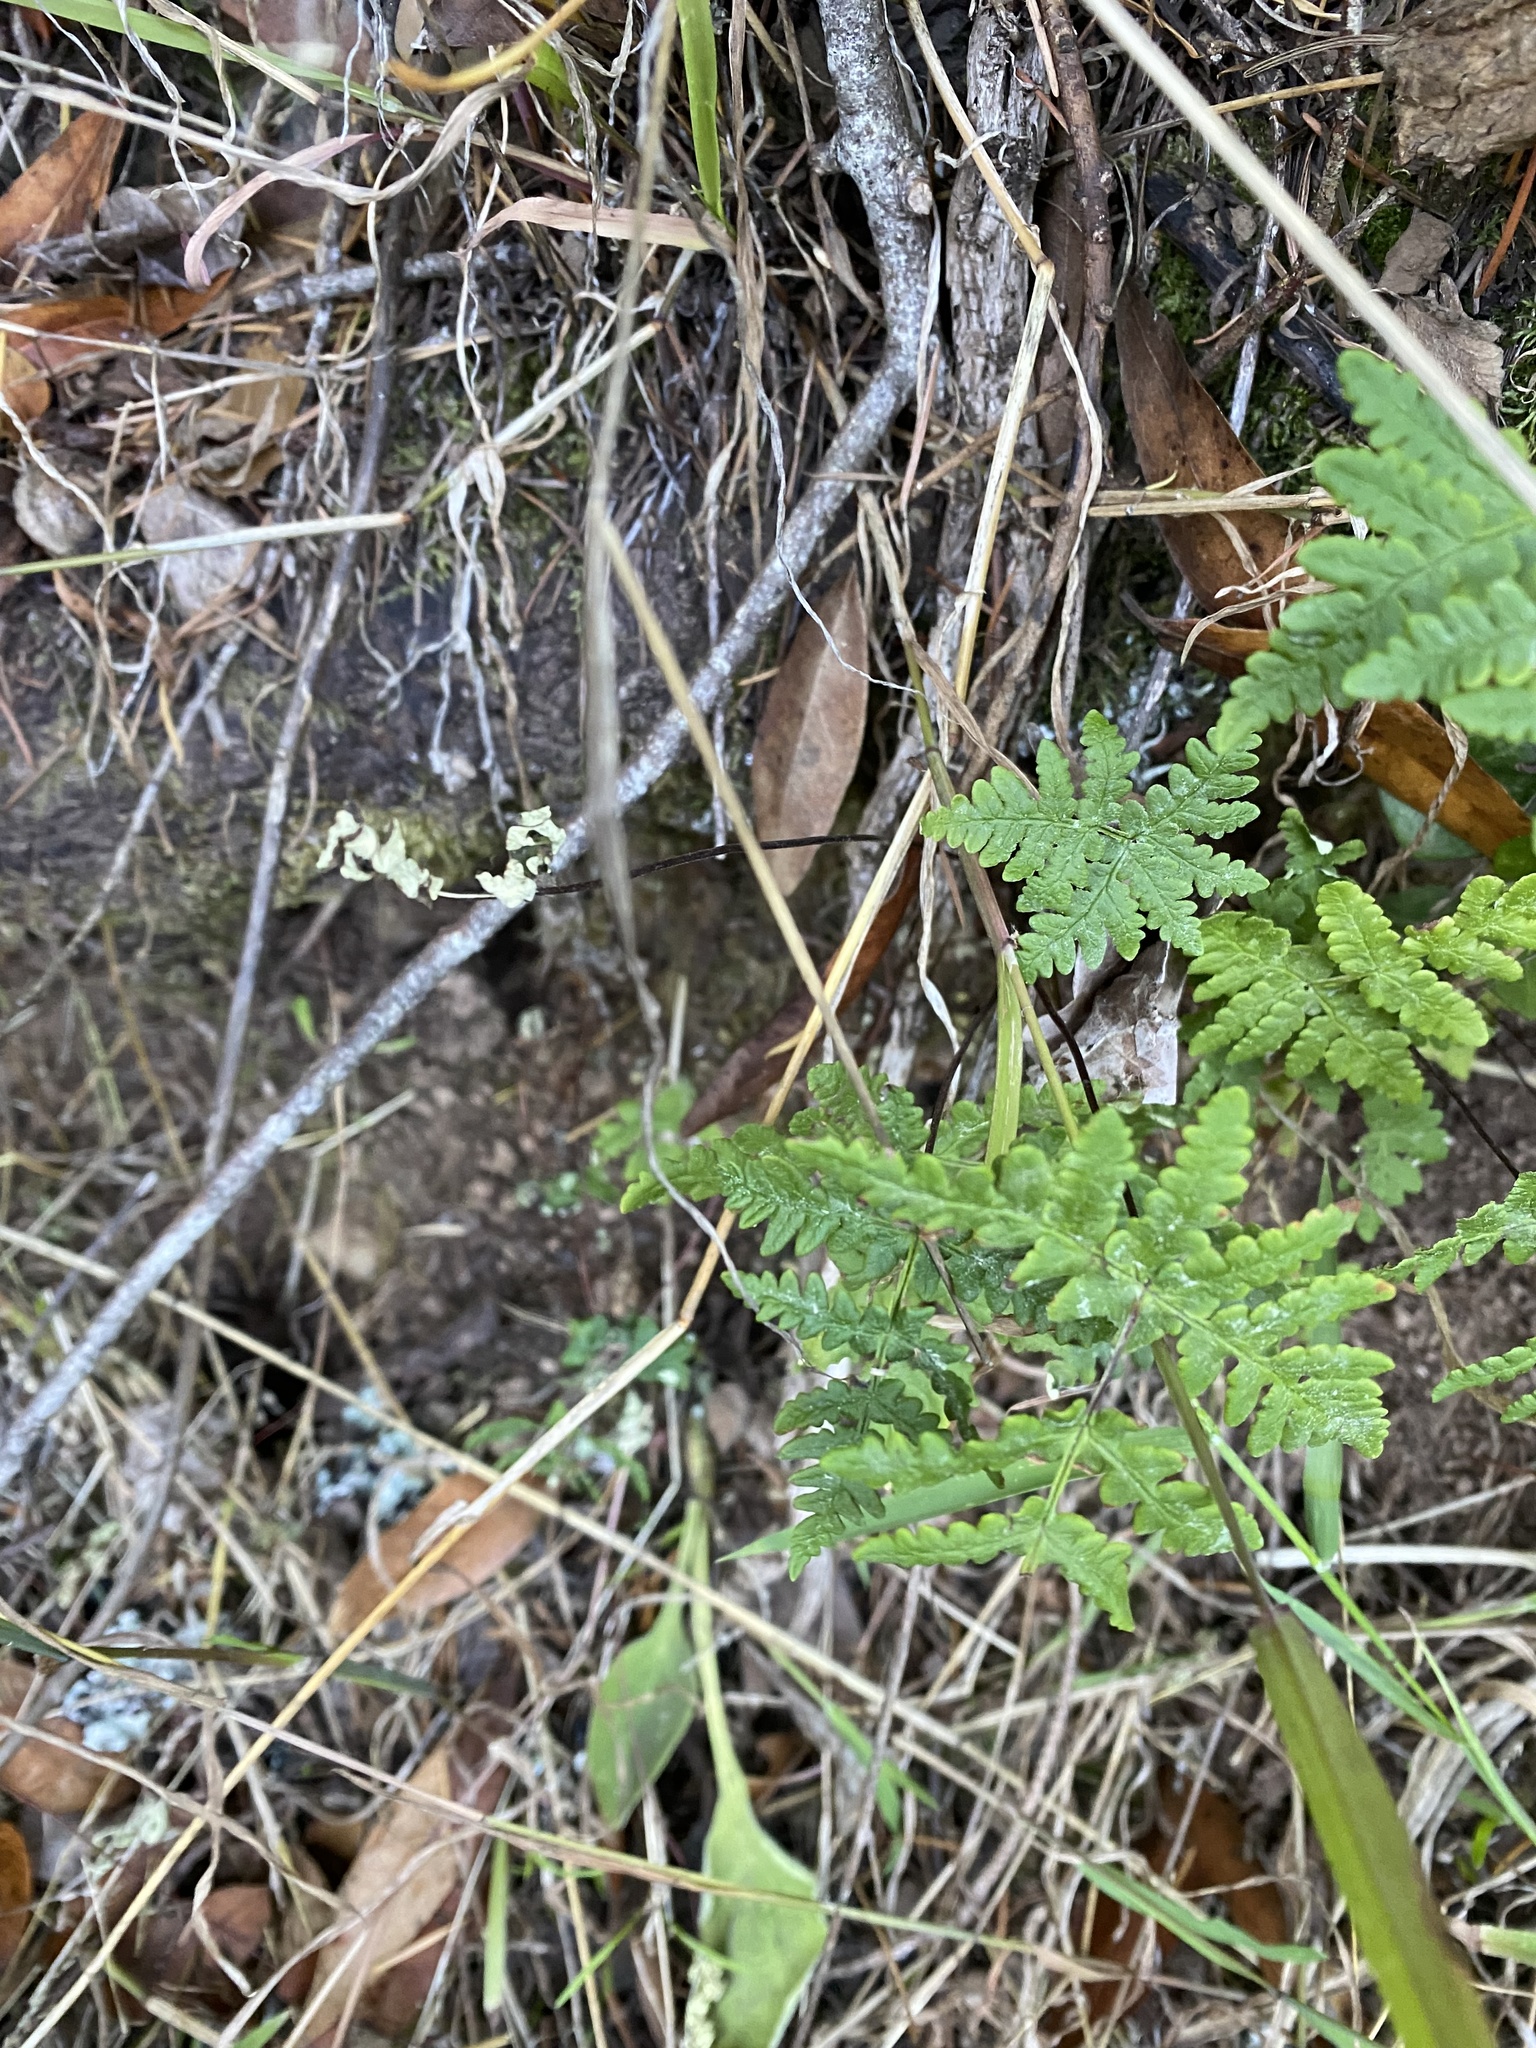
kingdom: Plantae
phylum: Tracheophyta
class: Polypodiopsida
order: Polypodiales
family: Pteridaceae
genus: Pentagramma
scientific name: Pentagramma triangularis
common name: Gold fern
